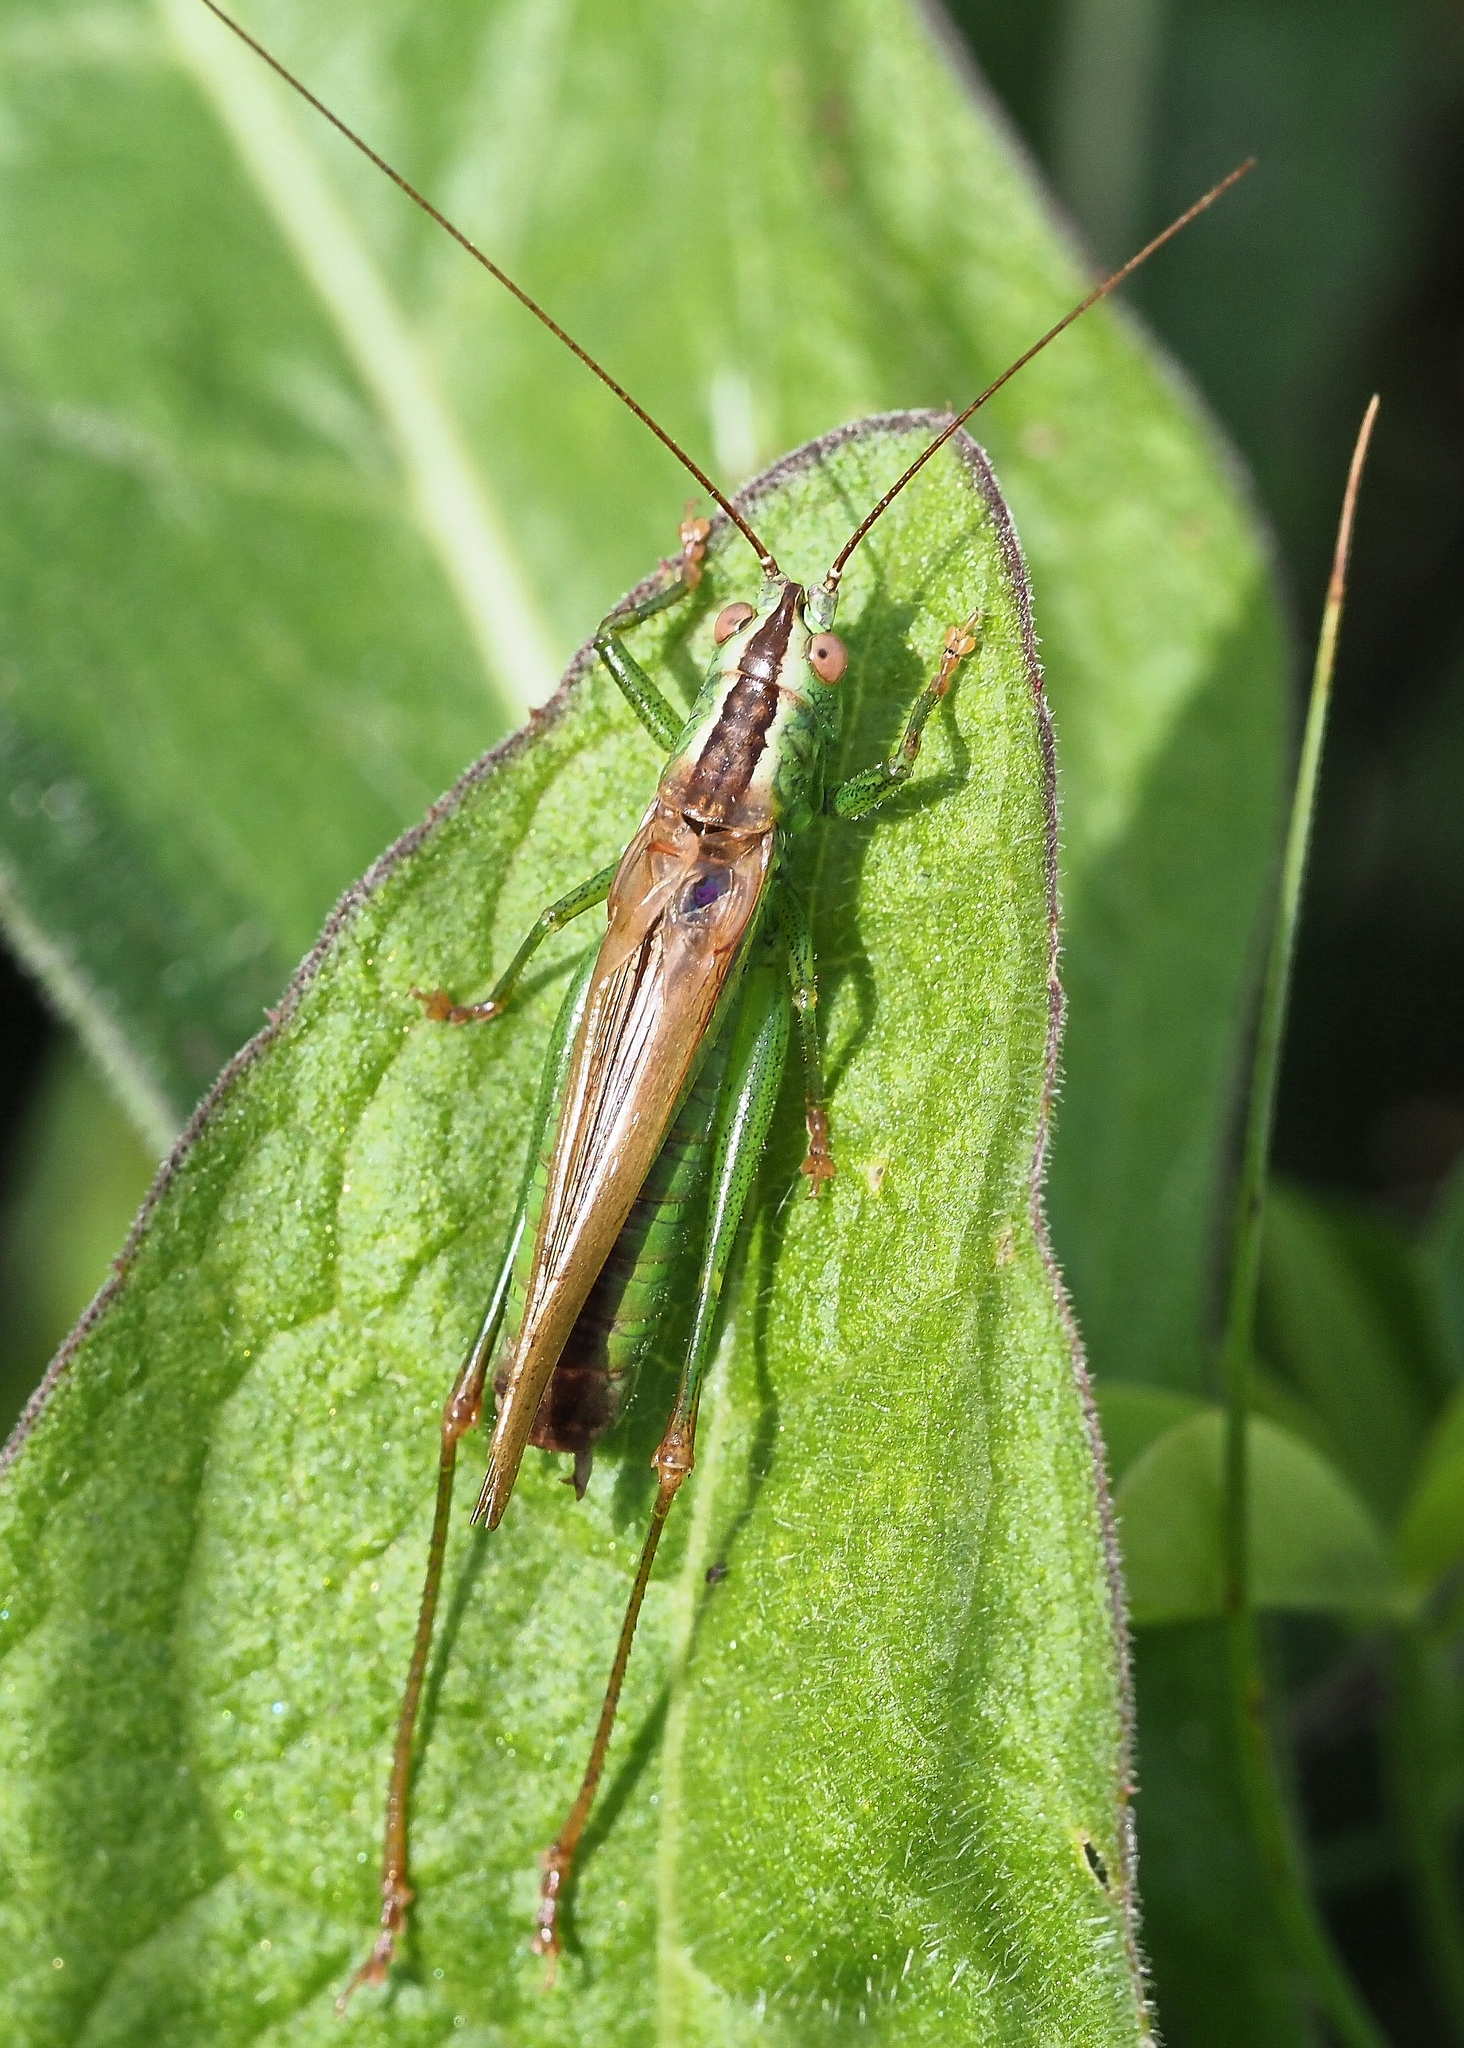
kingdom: Animalia
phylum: Arthropoda
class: Insecta
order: Orthoptera
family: Tettigoniidae
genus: Conocephalus
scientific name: Conocephalus fuscus
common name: Long-winged conehead
